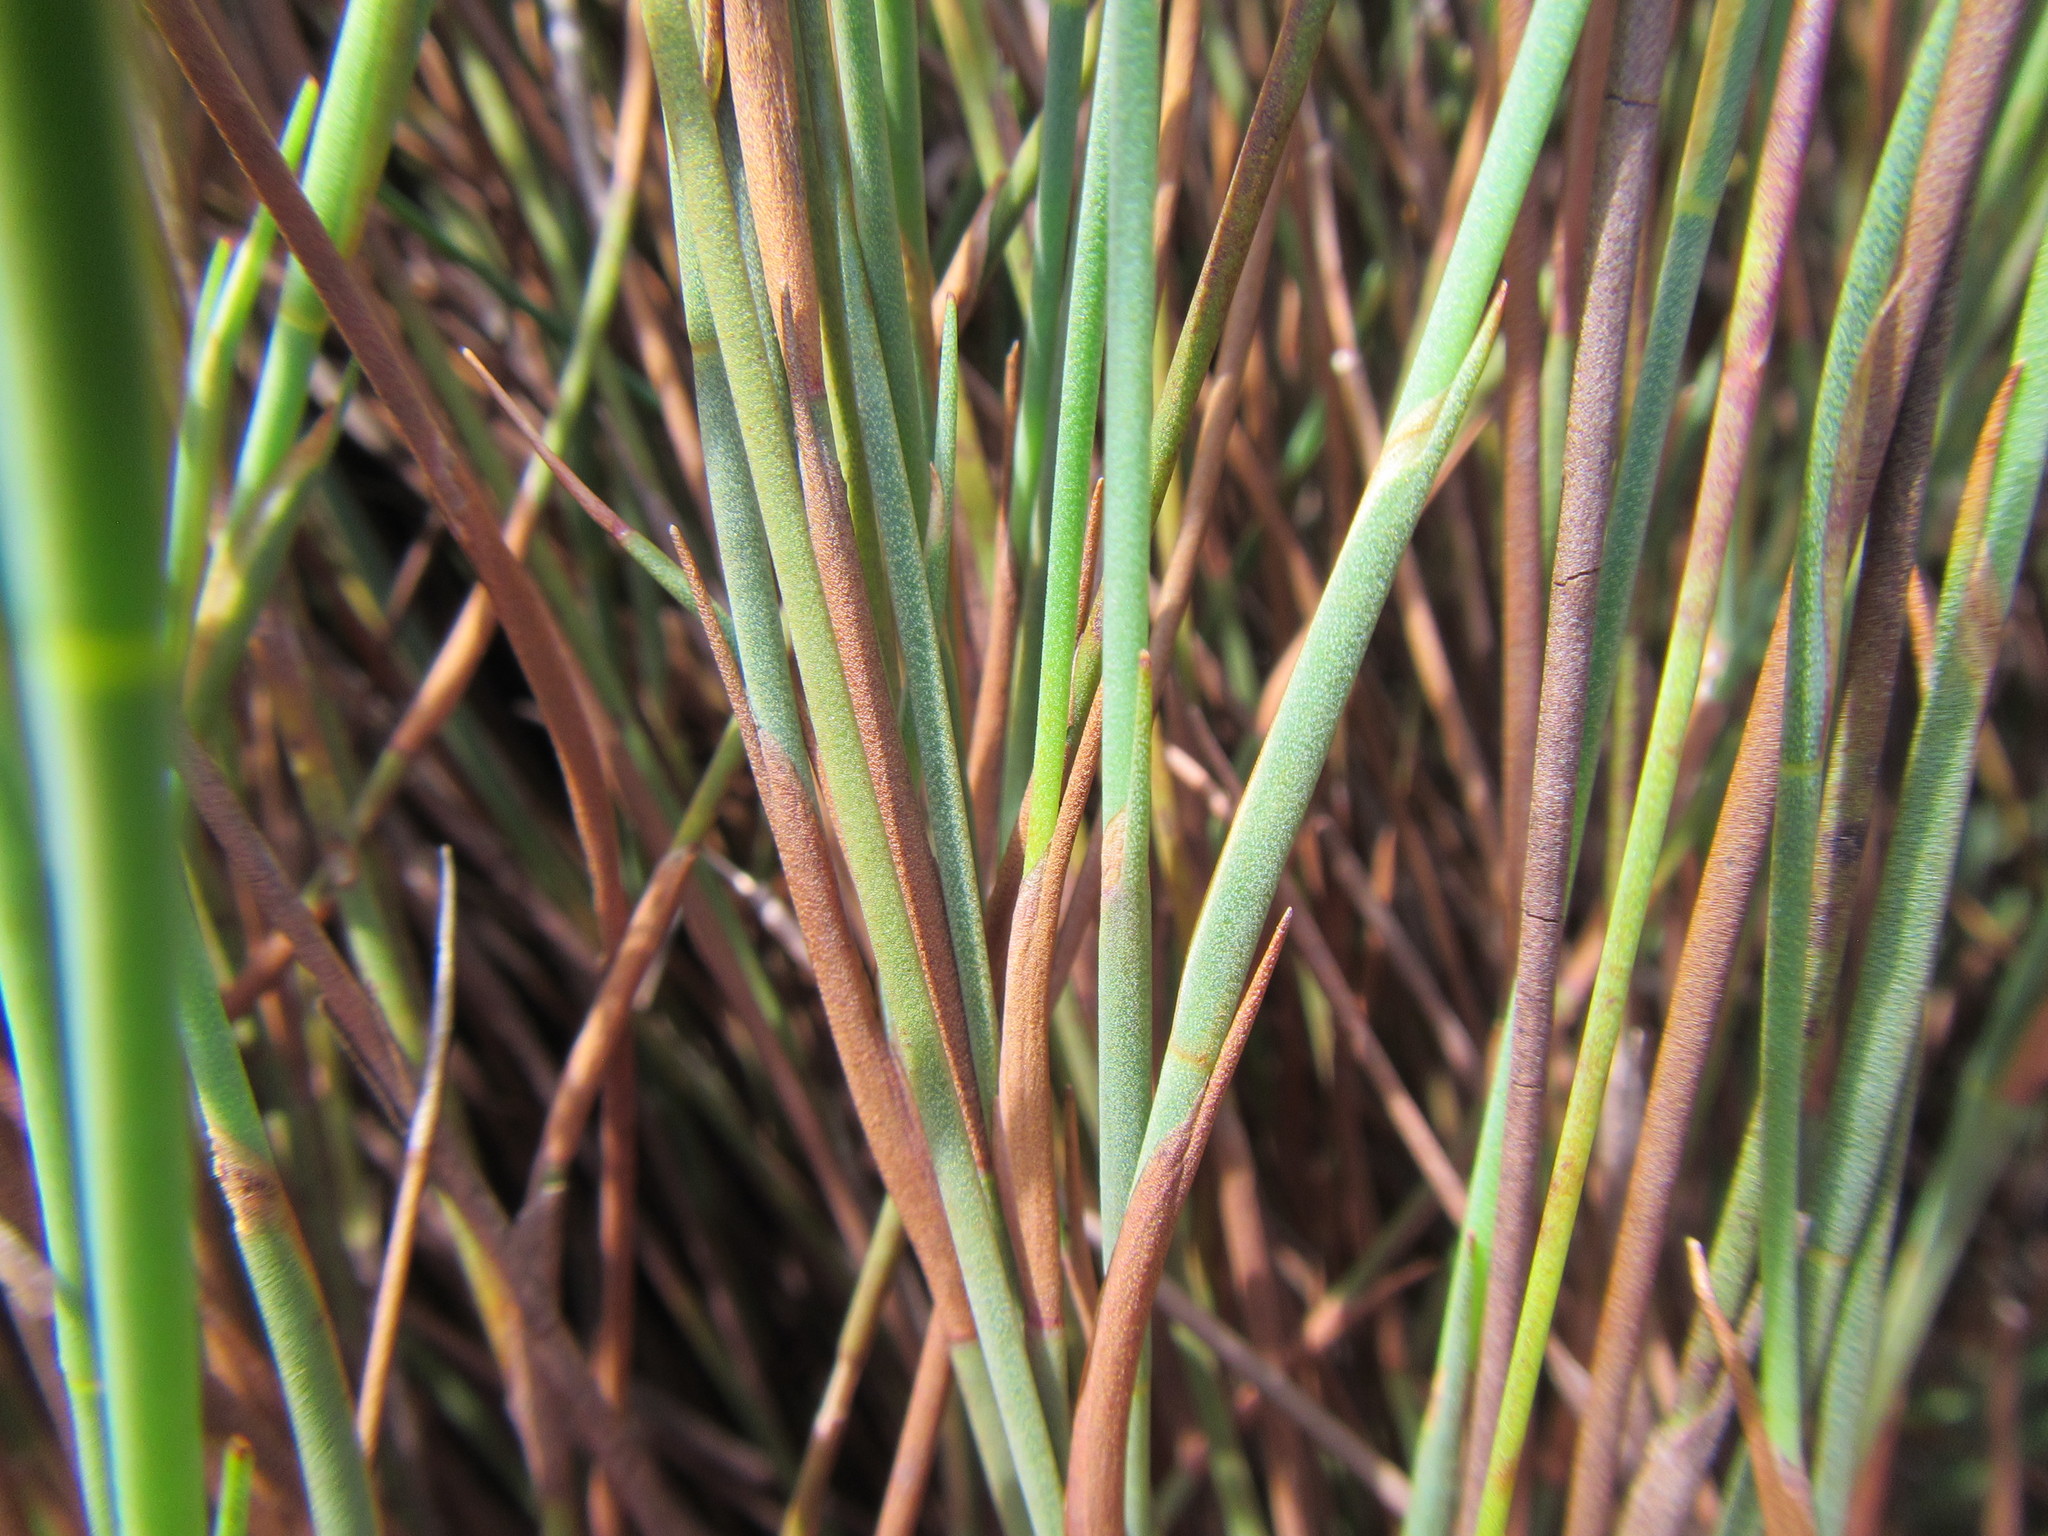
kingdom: Plantae
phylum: Tracheophyta
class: Liliopsida
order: Poales
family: Restionaceae
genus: Elegia
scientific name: Elegia neesii
